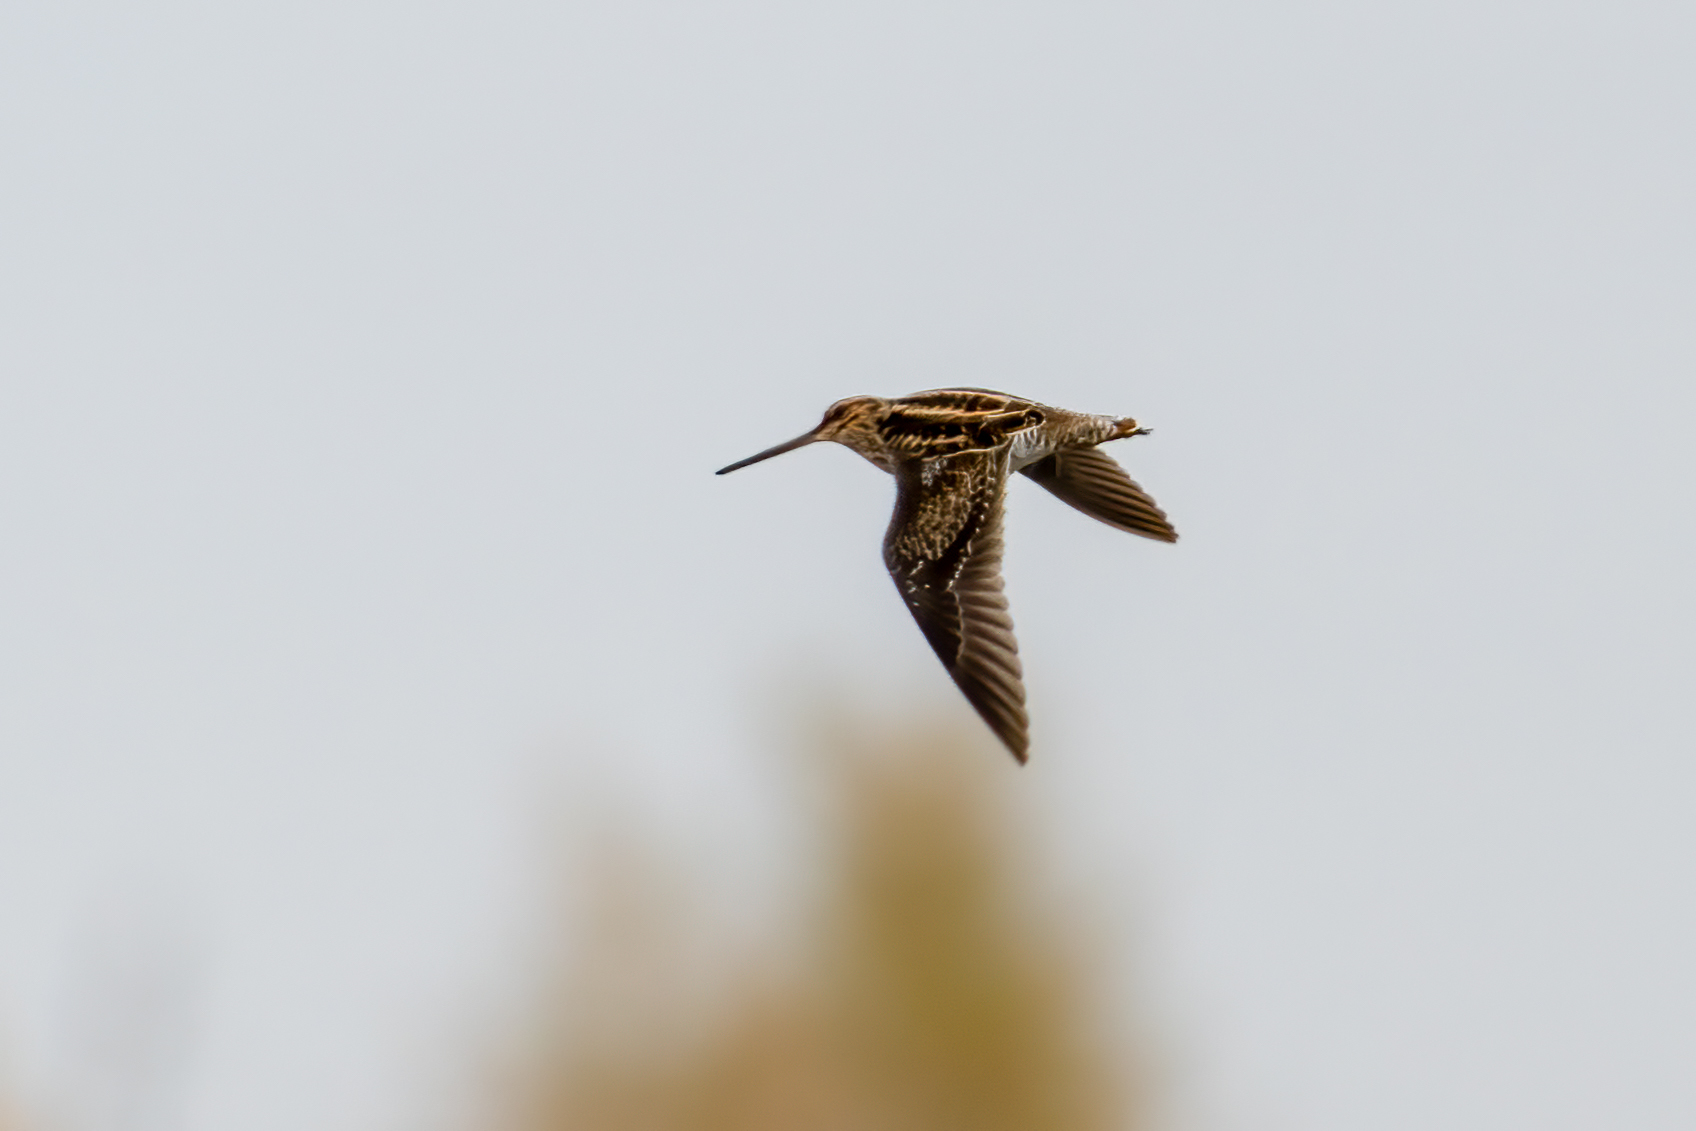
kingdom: Animalia
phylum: Chordata
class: Aves
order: Charadriiformes
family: Scolopacidae
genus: Gallinago
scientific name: Gallinago delicata
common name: Wilson's snipe
